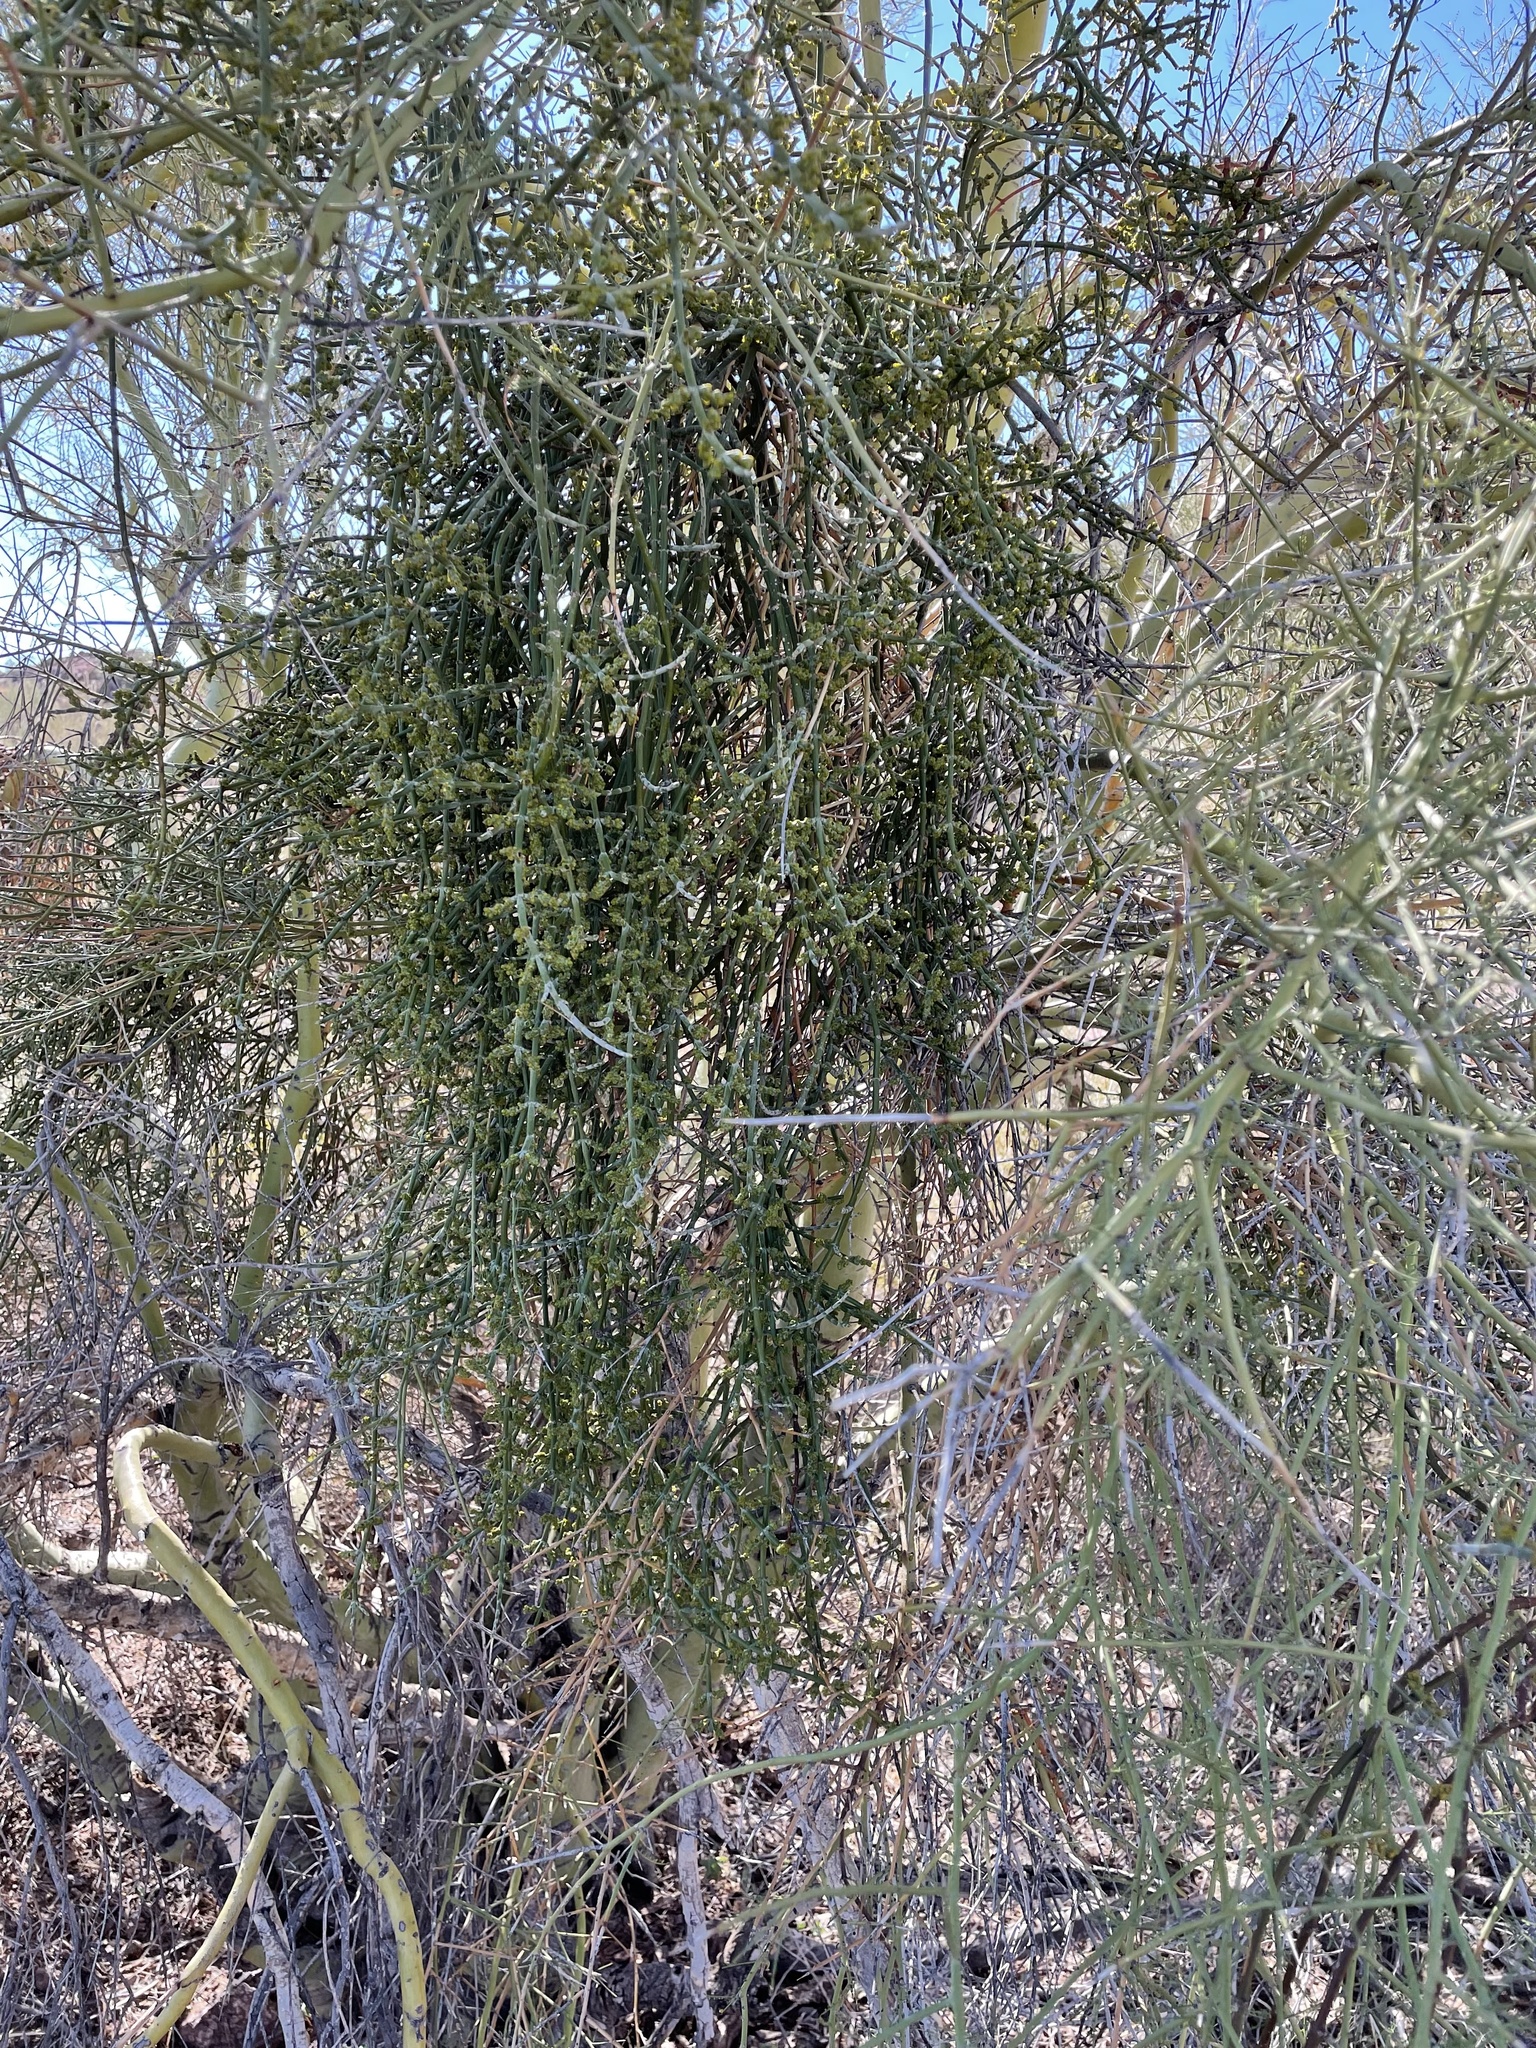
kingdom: Plantae
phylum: Tracheophyta
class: Magnoliopsida
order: Santalales
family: Viscaceae
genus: Phoradendron
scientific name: Phoradendron californicum
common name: Acacia mistletoe
